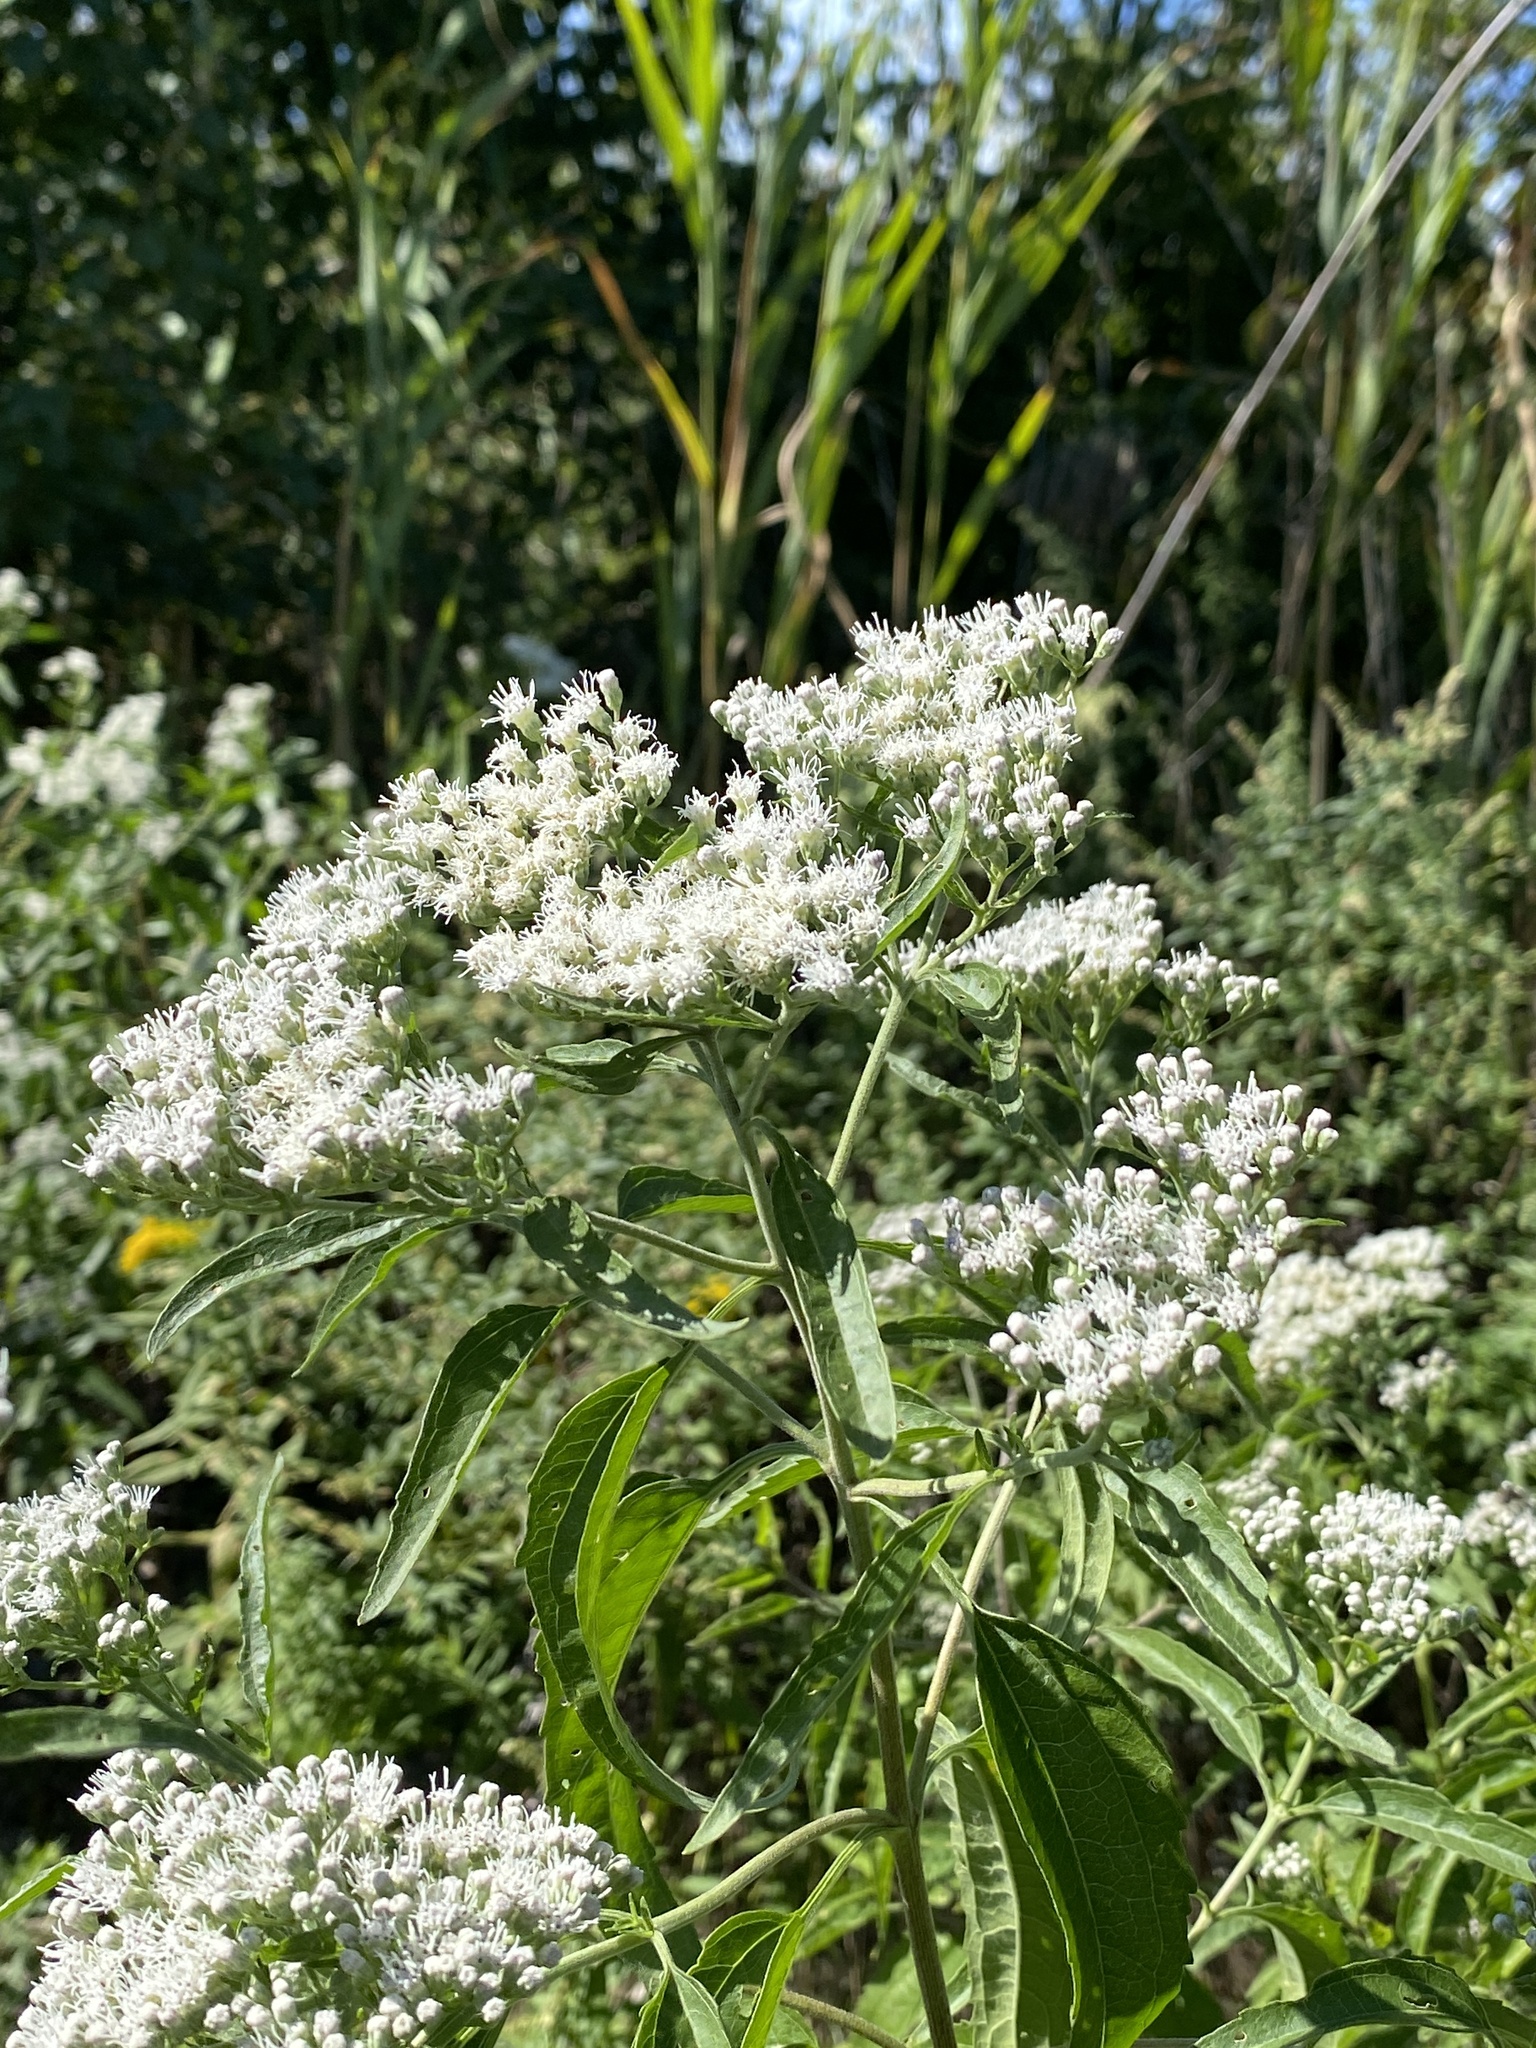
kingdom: Plantae
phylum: Tracheophyta
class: Magnoliopsida
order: Asterales
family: Asteraceae
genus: Eupatorium
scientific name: Eupatorium serotinum
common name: Late boneset
